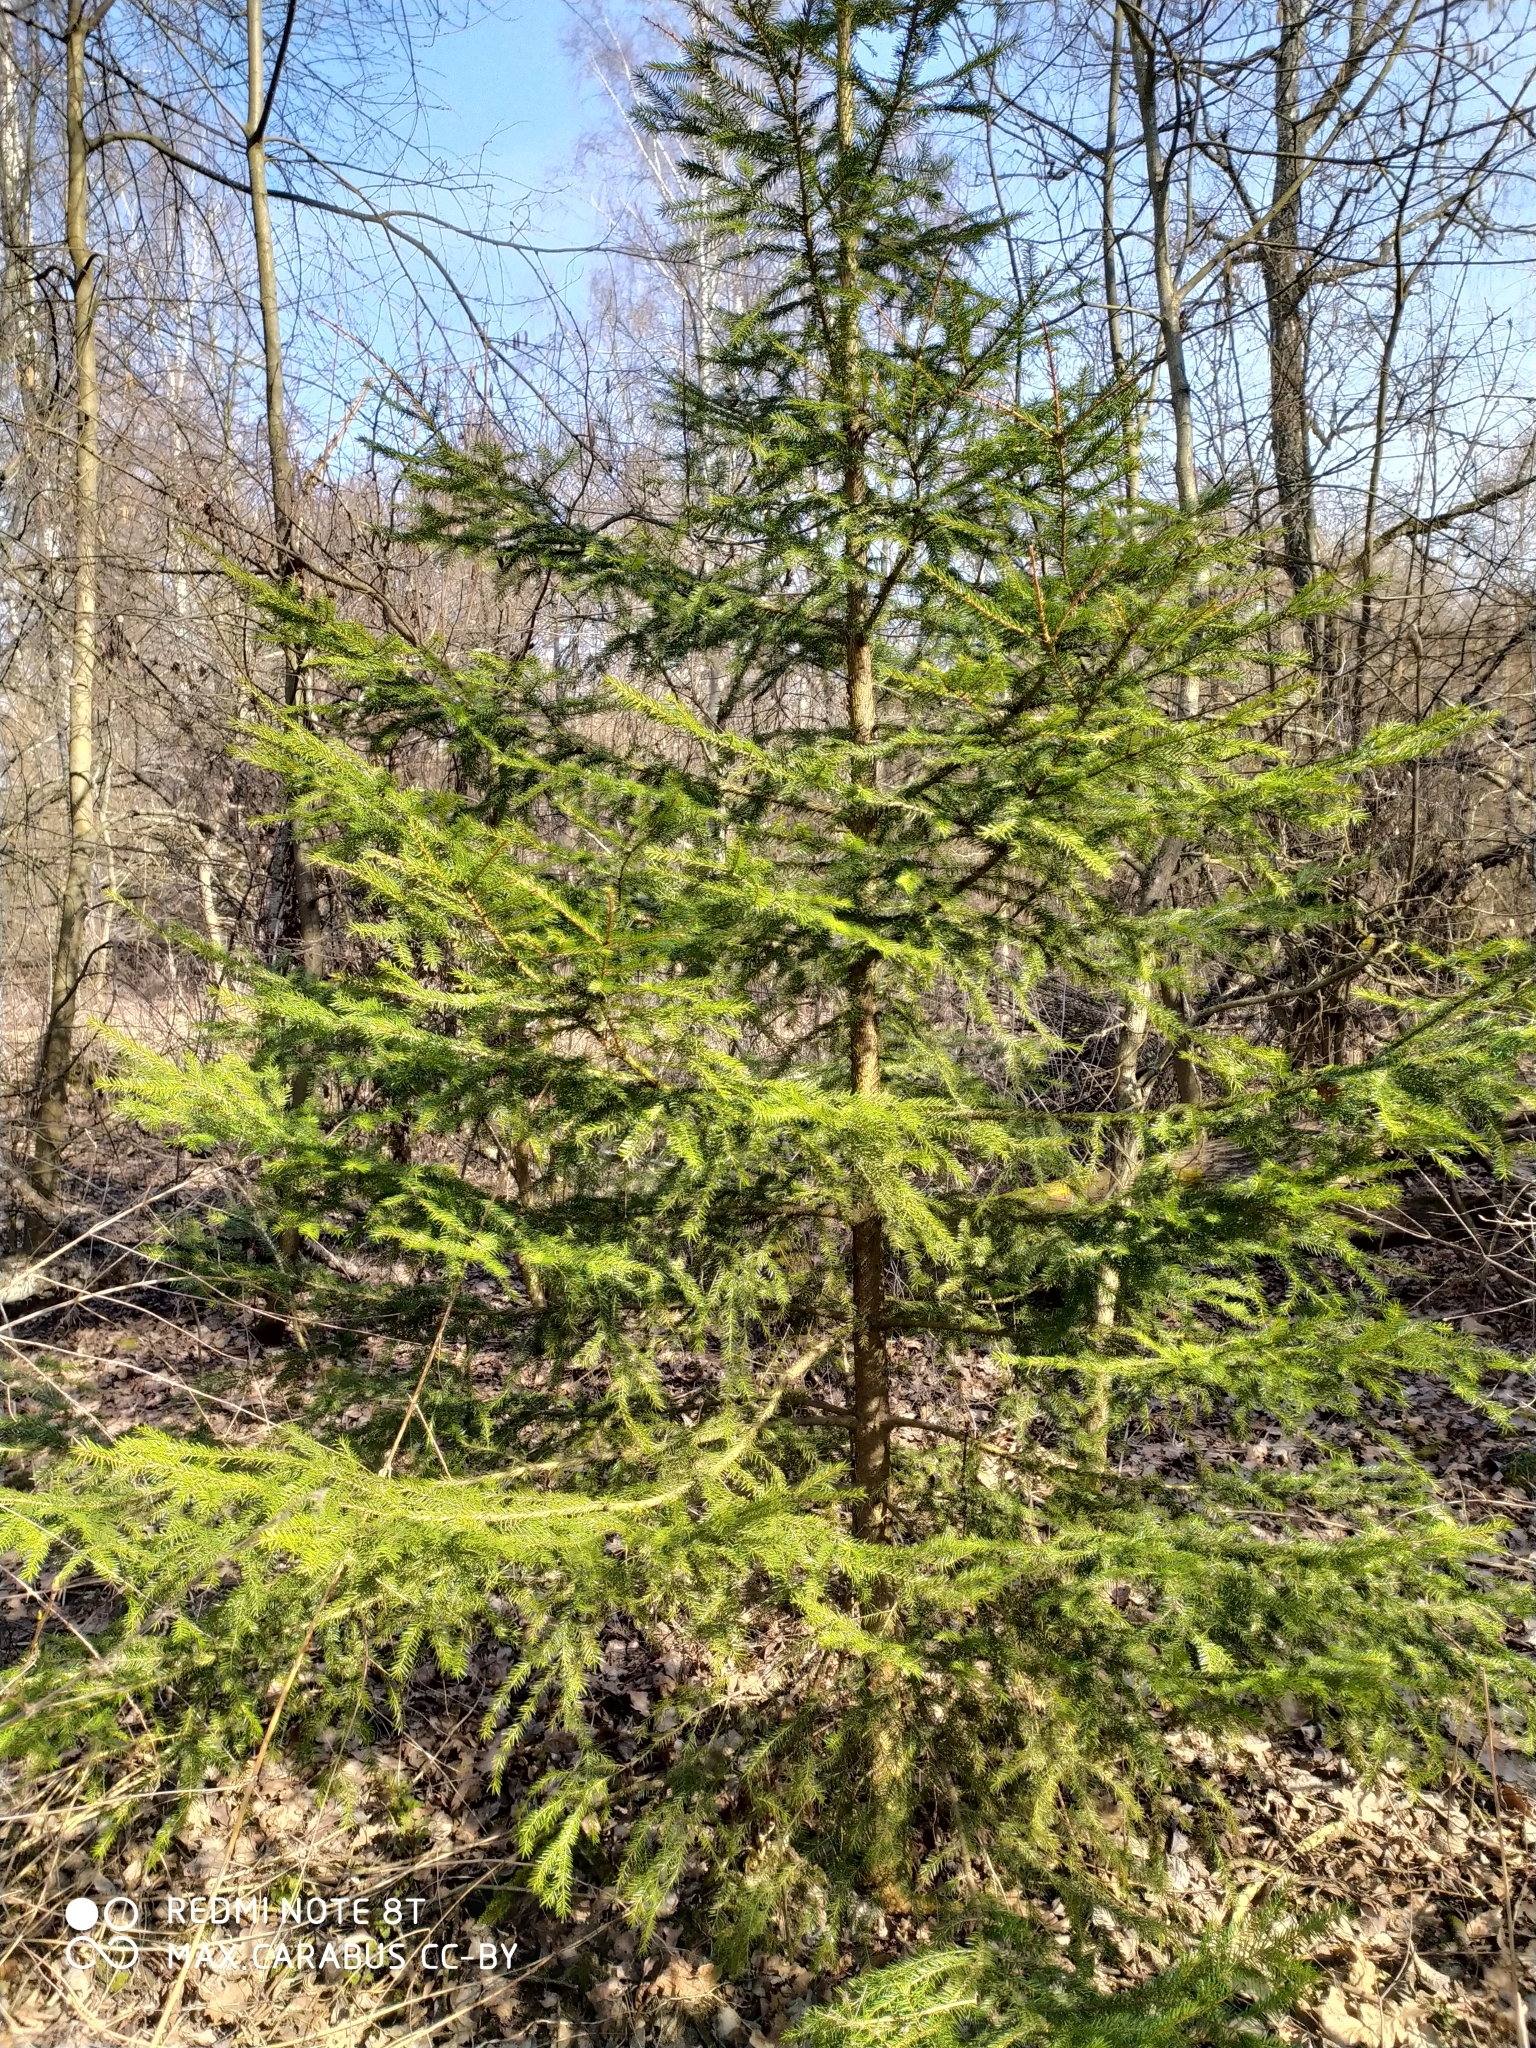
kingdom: Plantae
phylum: Tracheophyta
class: Pinopsida
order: Pinales
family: Pinaceae
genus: Picea
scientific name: Picea abies
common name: Norway spruce
